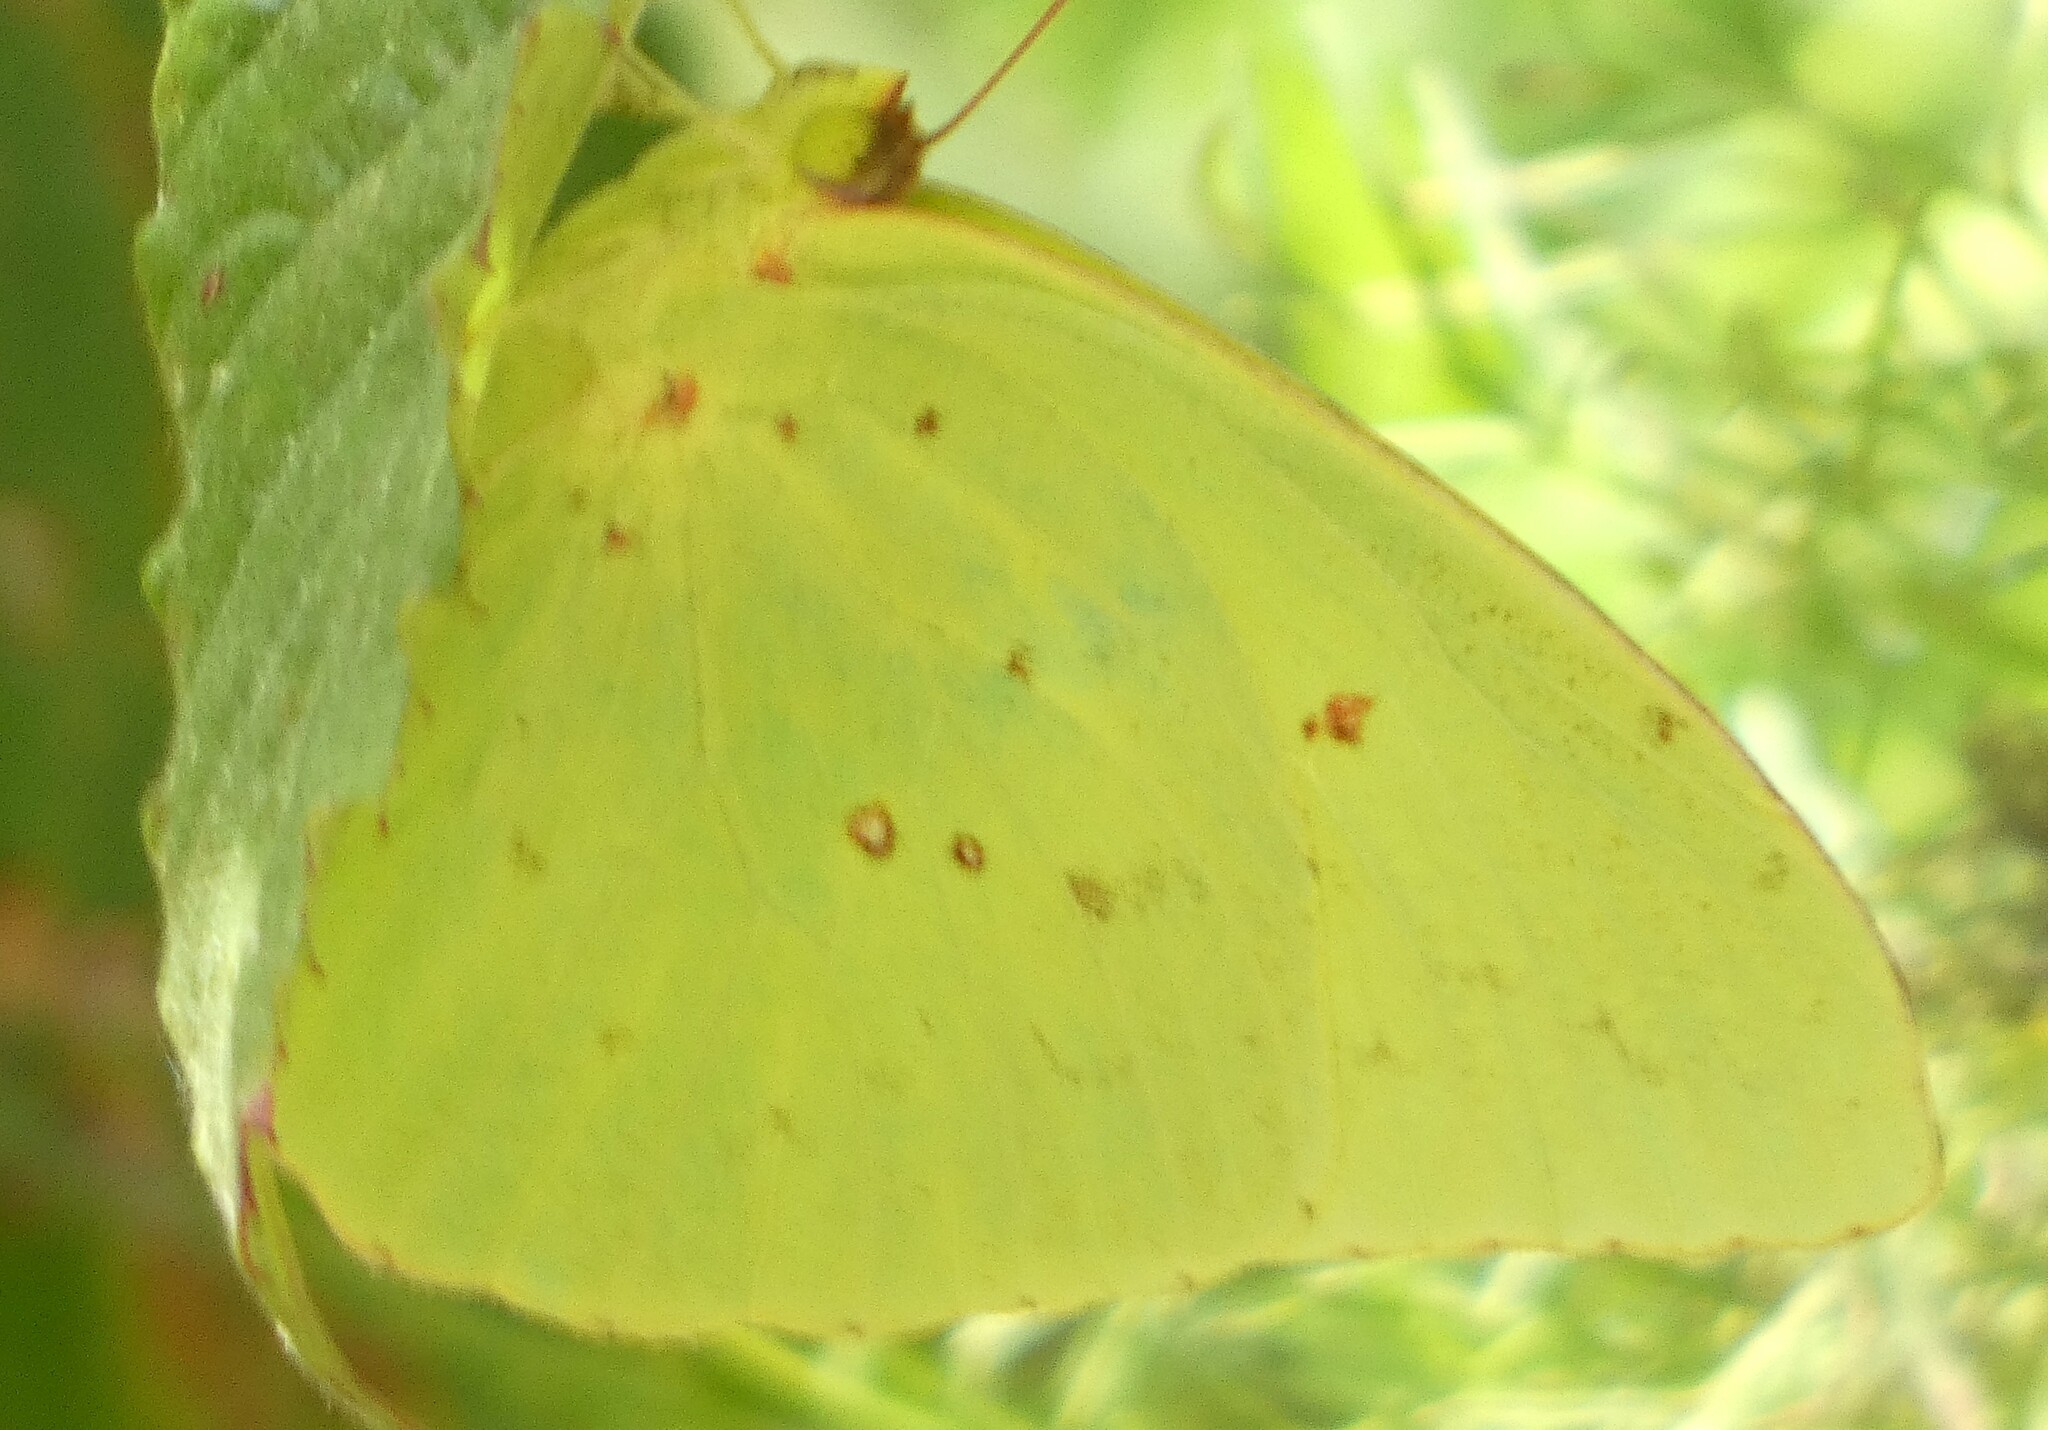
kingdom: Animalia
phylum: Arthropoda
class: Insecta
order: Lepidoptera
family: Pieridae
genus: Phoebis
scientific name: Phoebis sennae
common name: Cloudless sulphur
